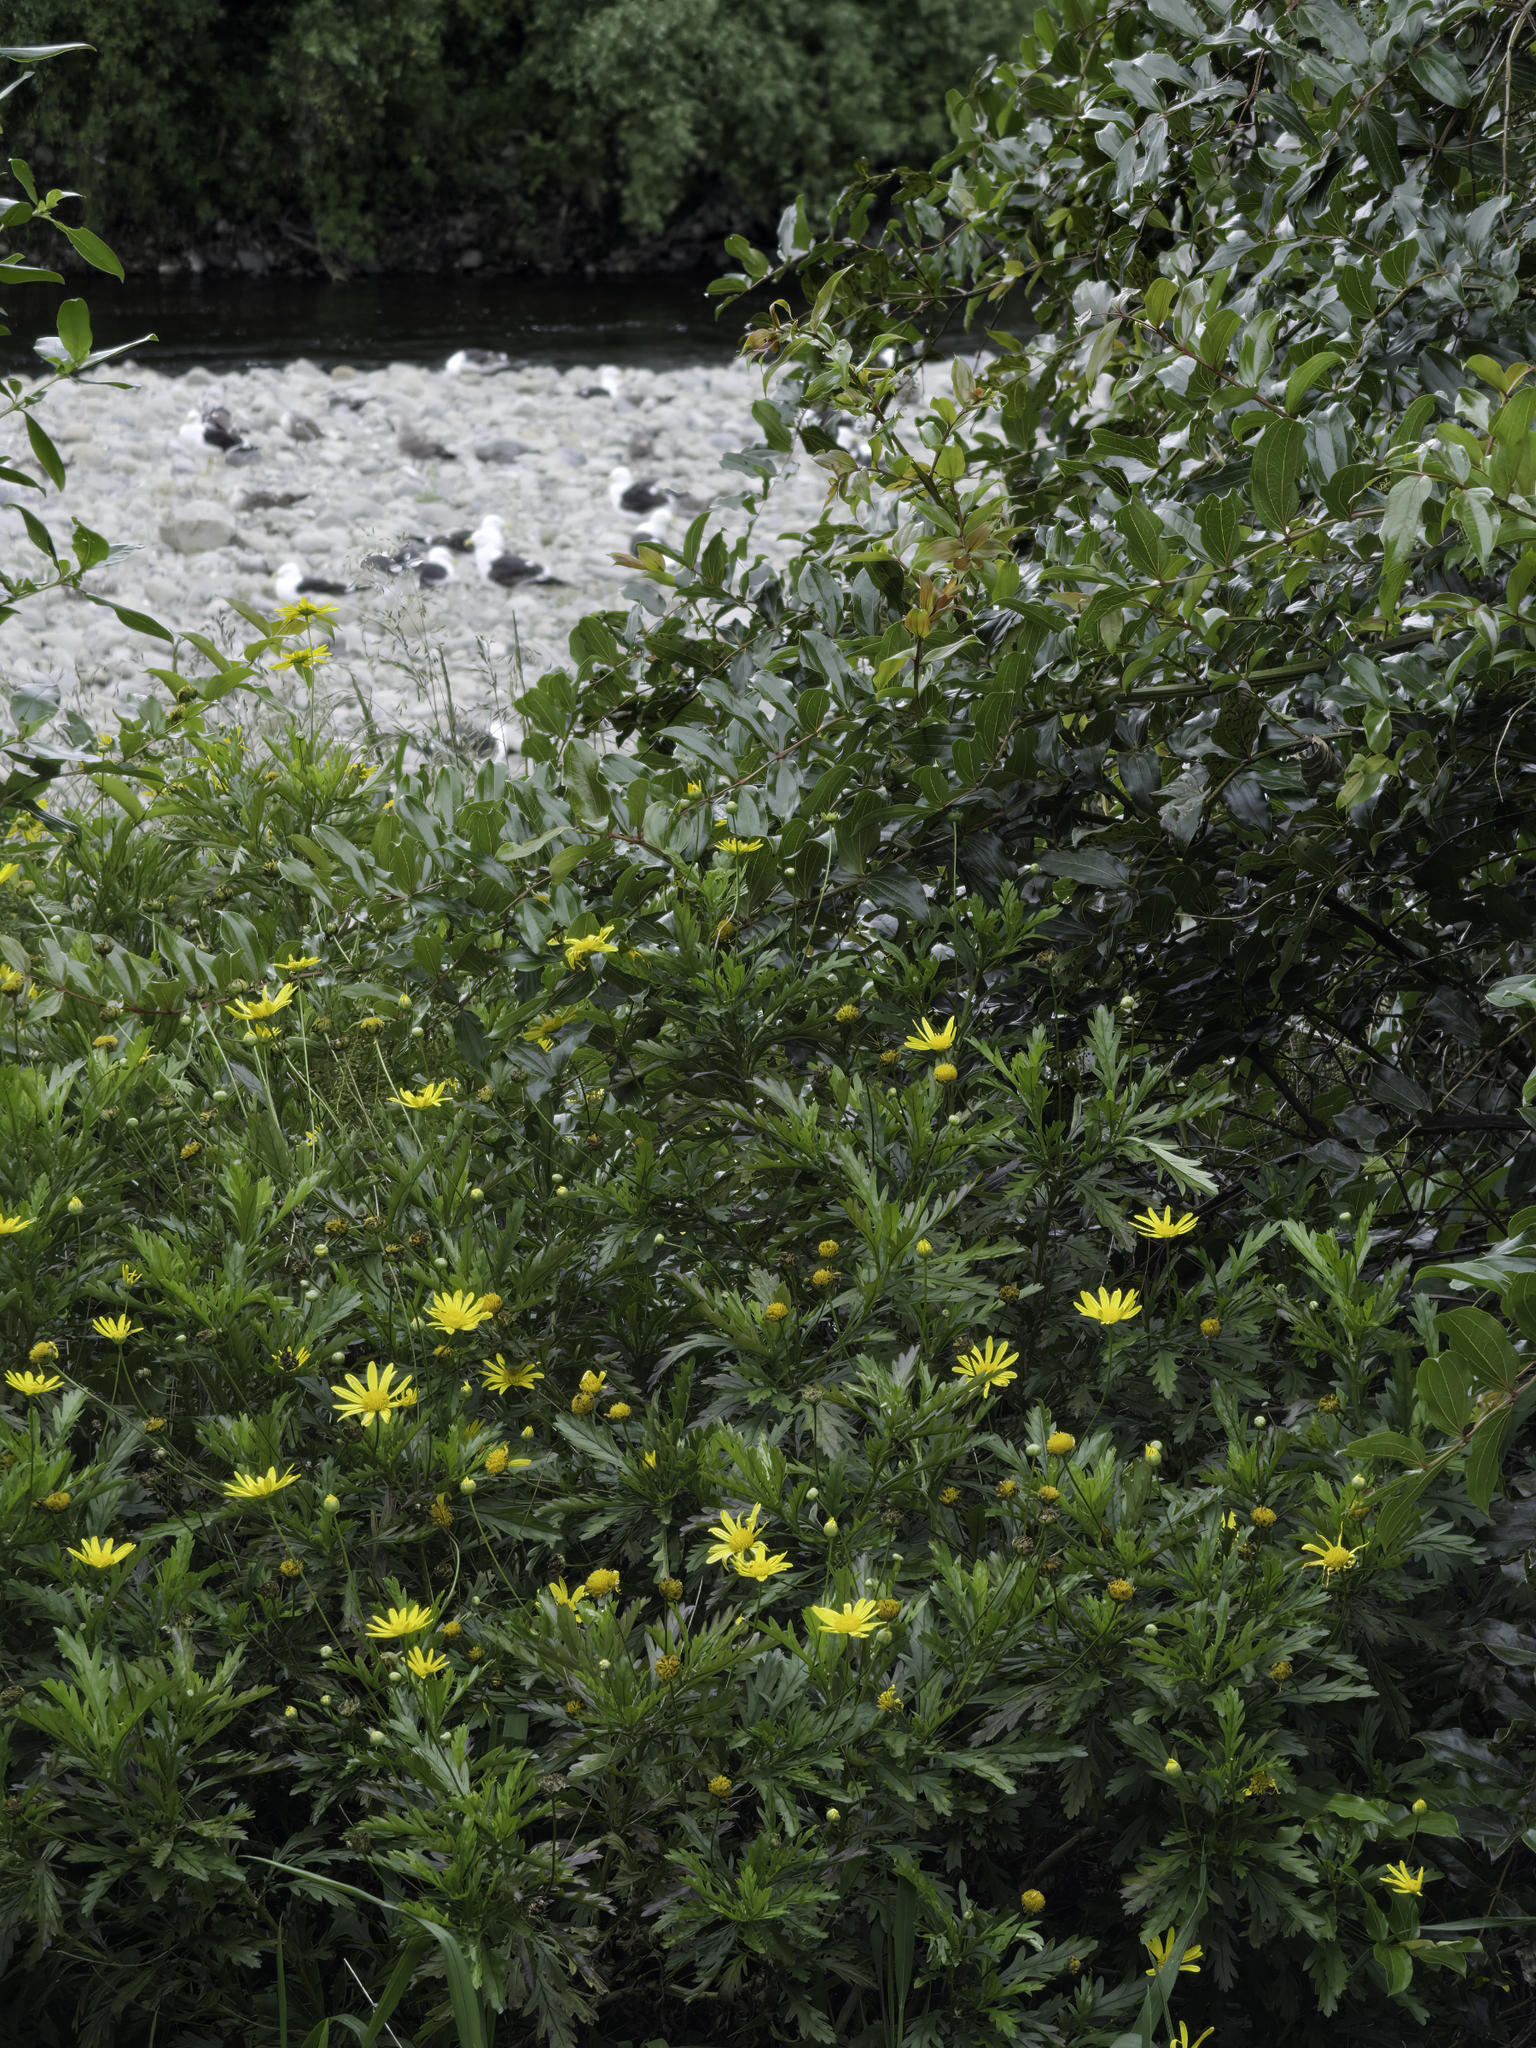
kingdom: Plantae
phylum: Tracheophyta
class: Magnoliopsida
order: Asterales
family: Asteraceae
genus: Euryops
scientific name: Euryops chrysanthemoides
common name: Bull's eye
